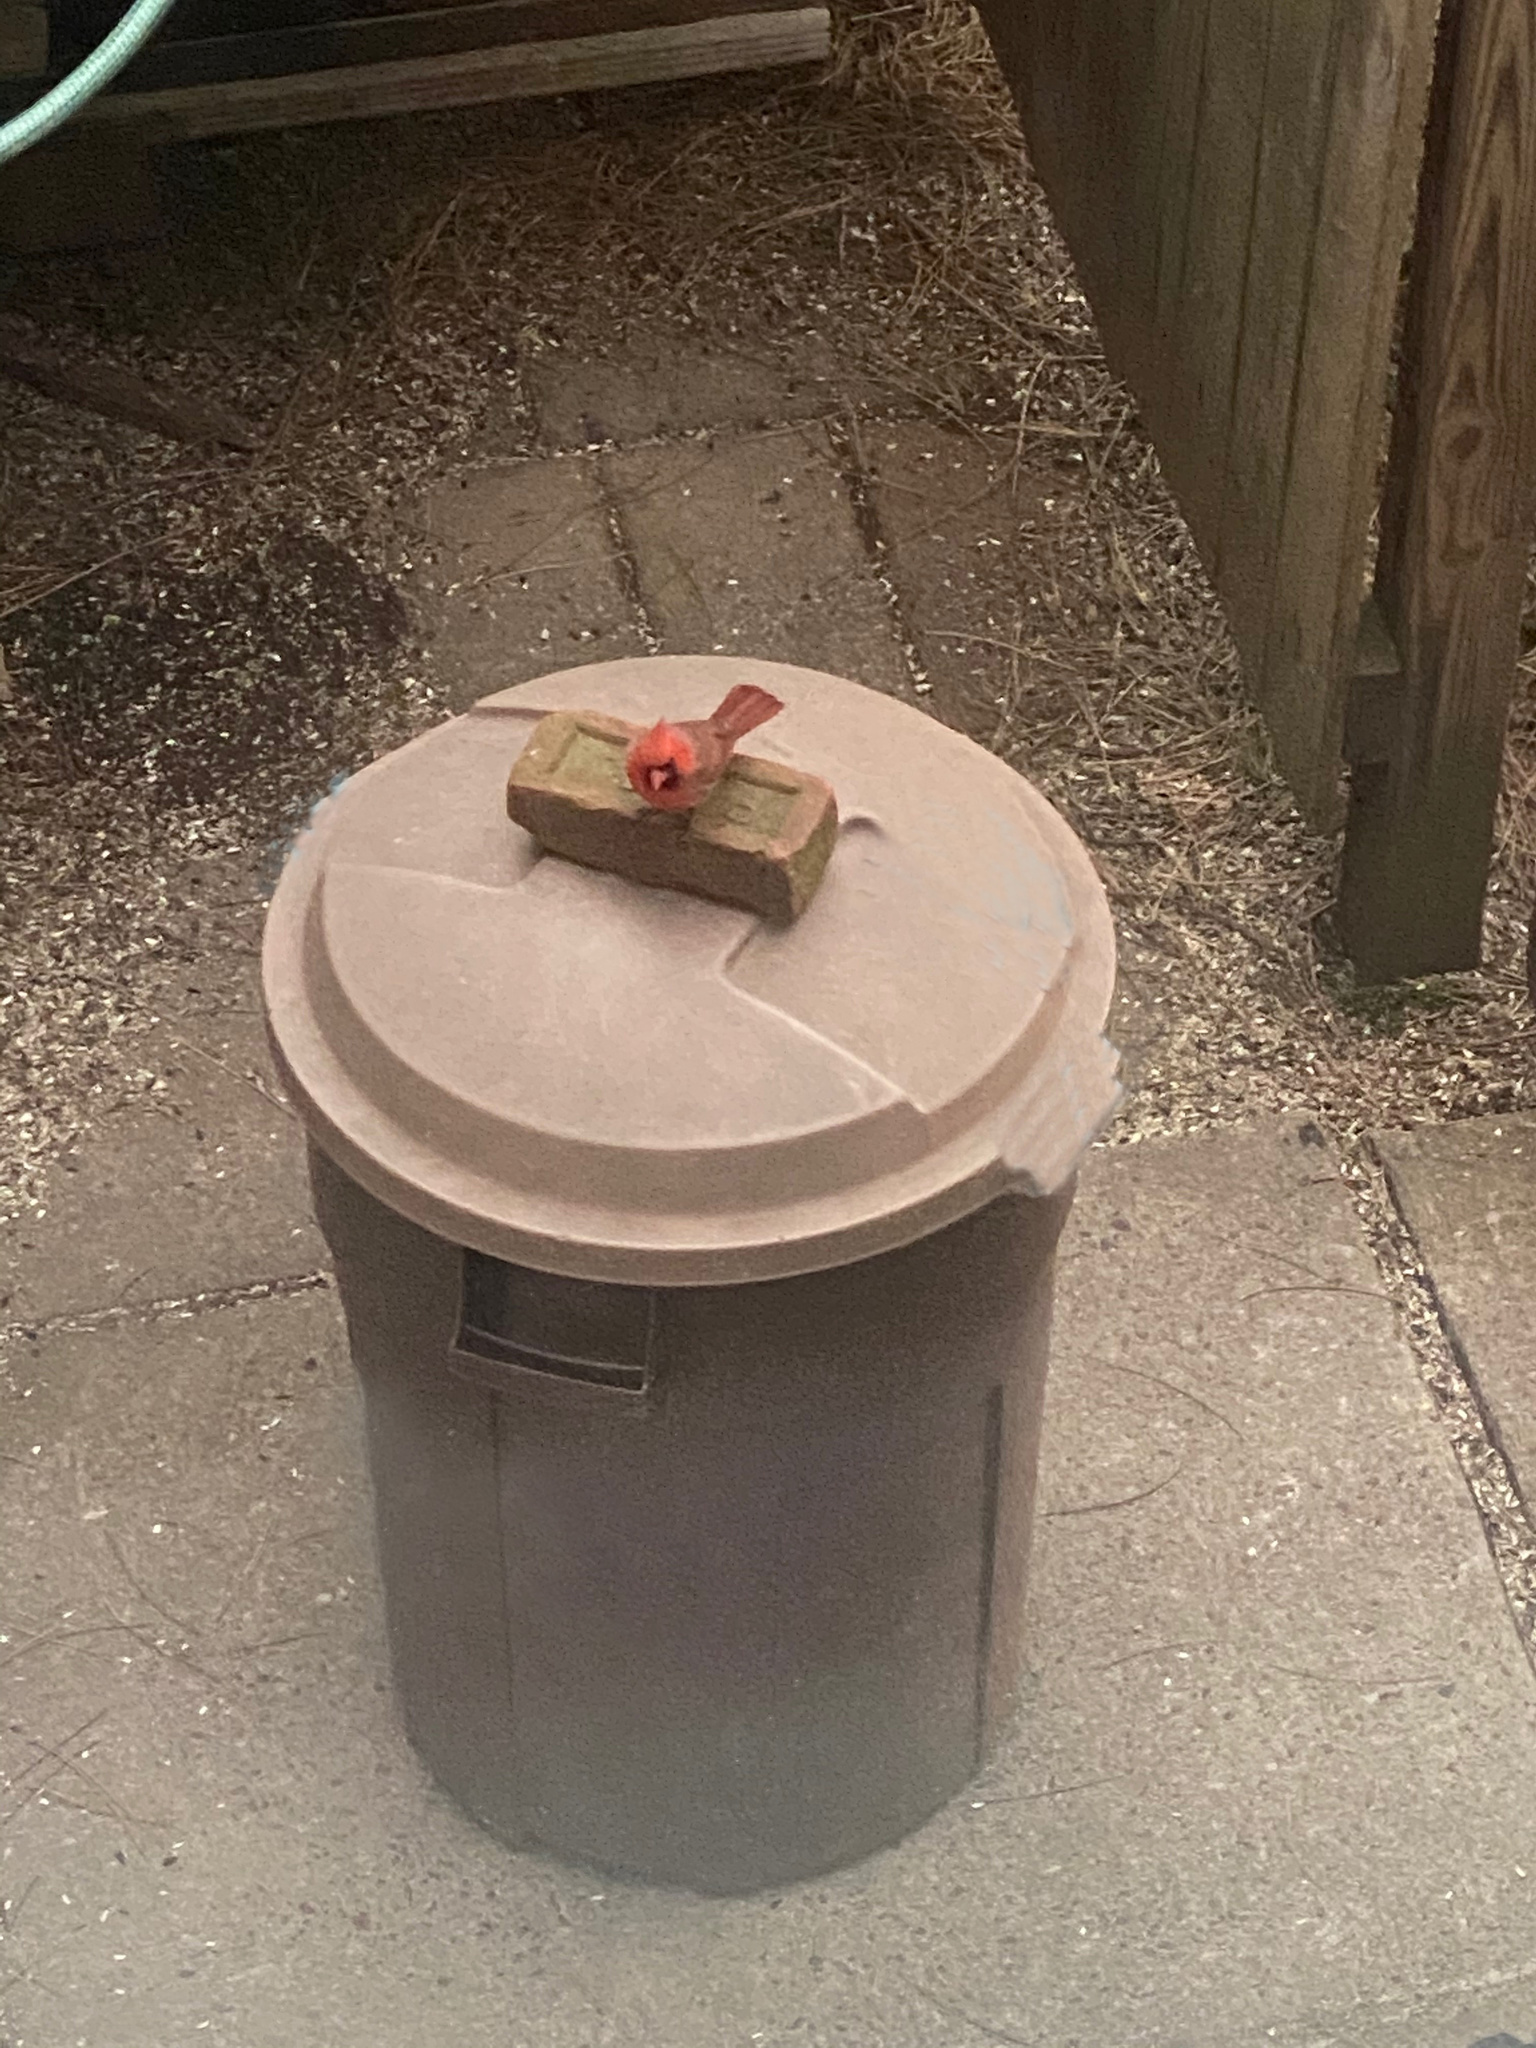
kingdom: Animalia
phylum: Chordata
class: Aves
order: Passeriformes
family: Cardinalidae
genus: Cardinalis
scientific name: Cardinalis cardinalis
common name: Northern cardinal
